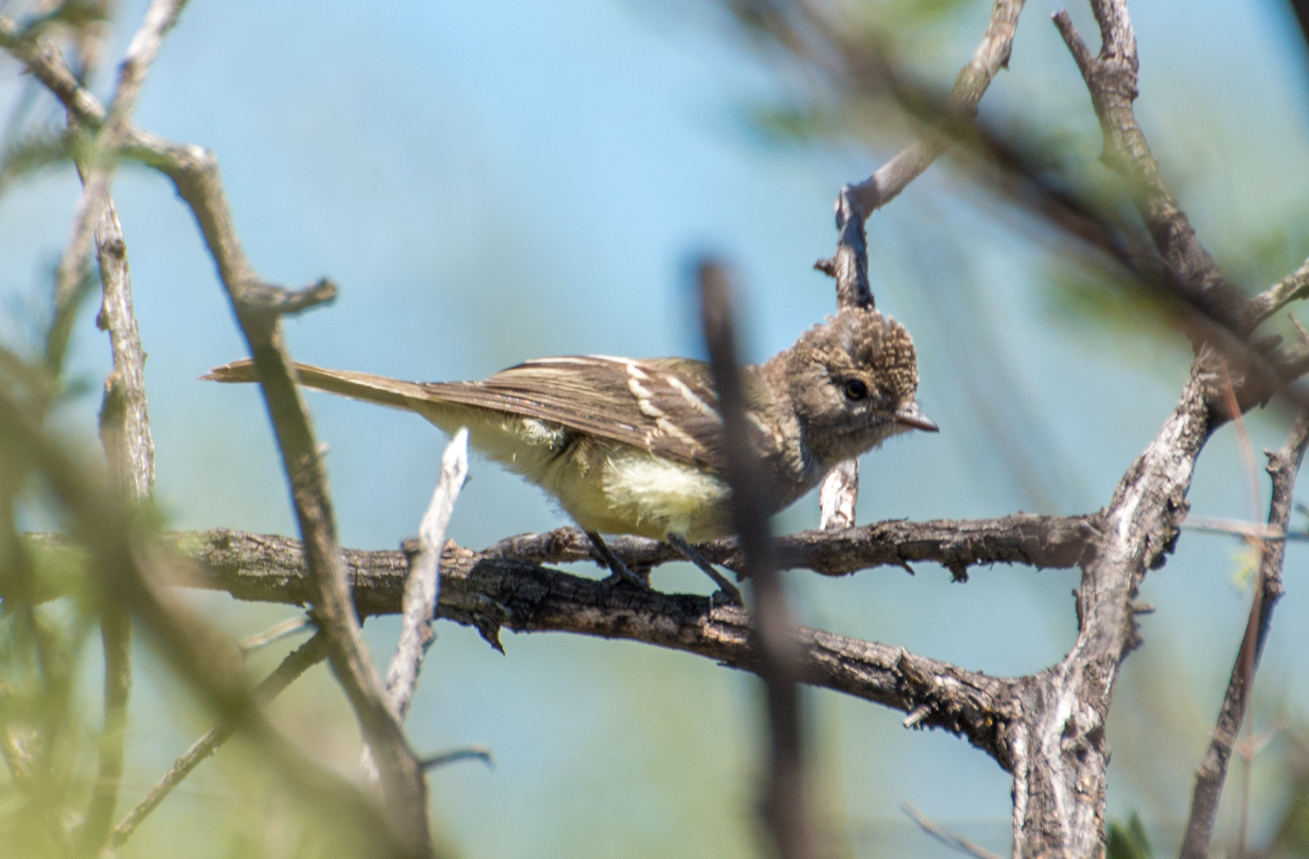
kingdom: Animalia
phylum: Chordata
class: Aves
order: Passeriformes
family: Tyrannidae
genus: Sublegatus
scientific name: Sublegatus modestus
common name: Southern scrub flycatcher
